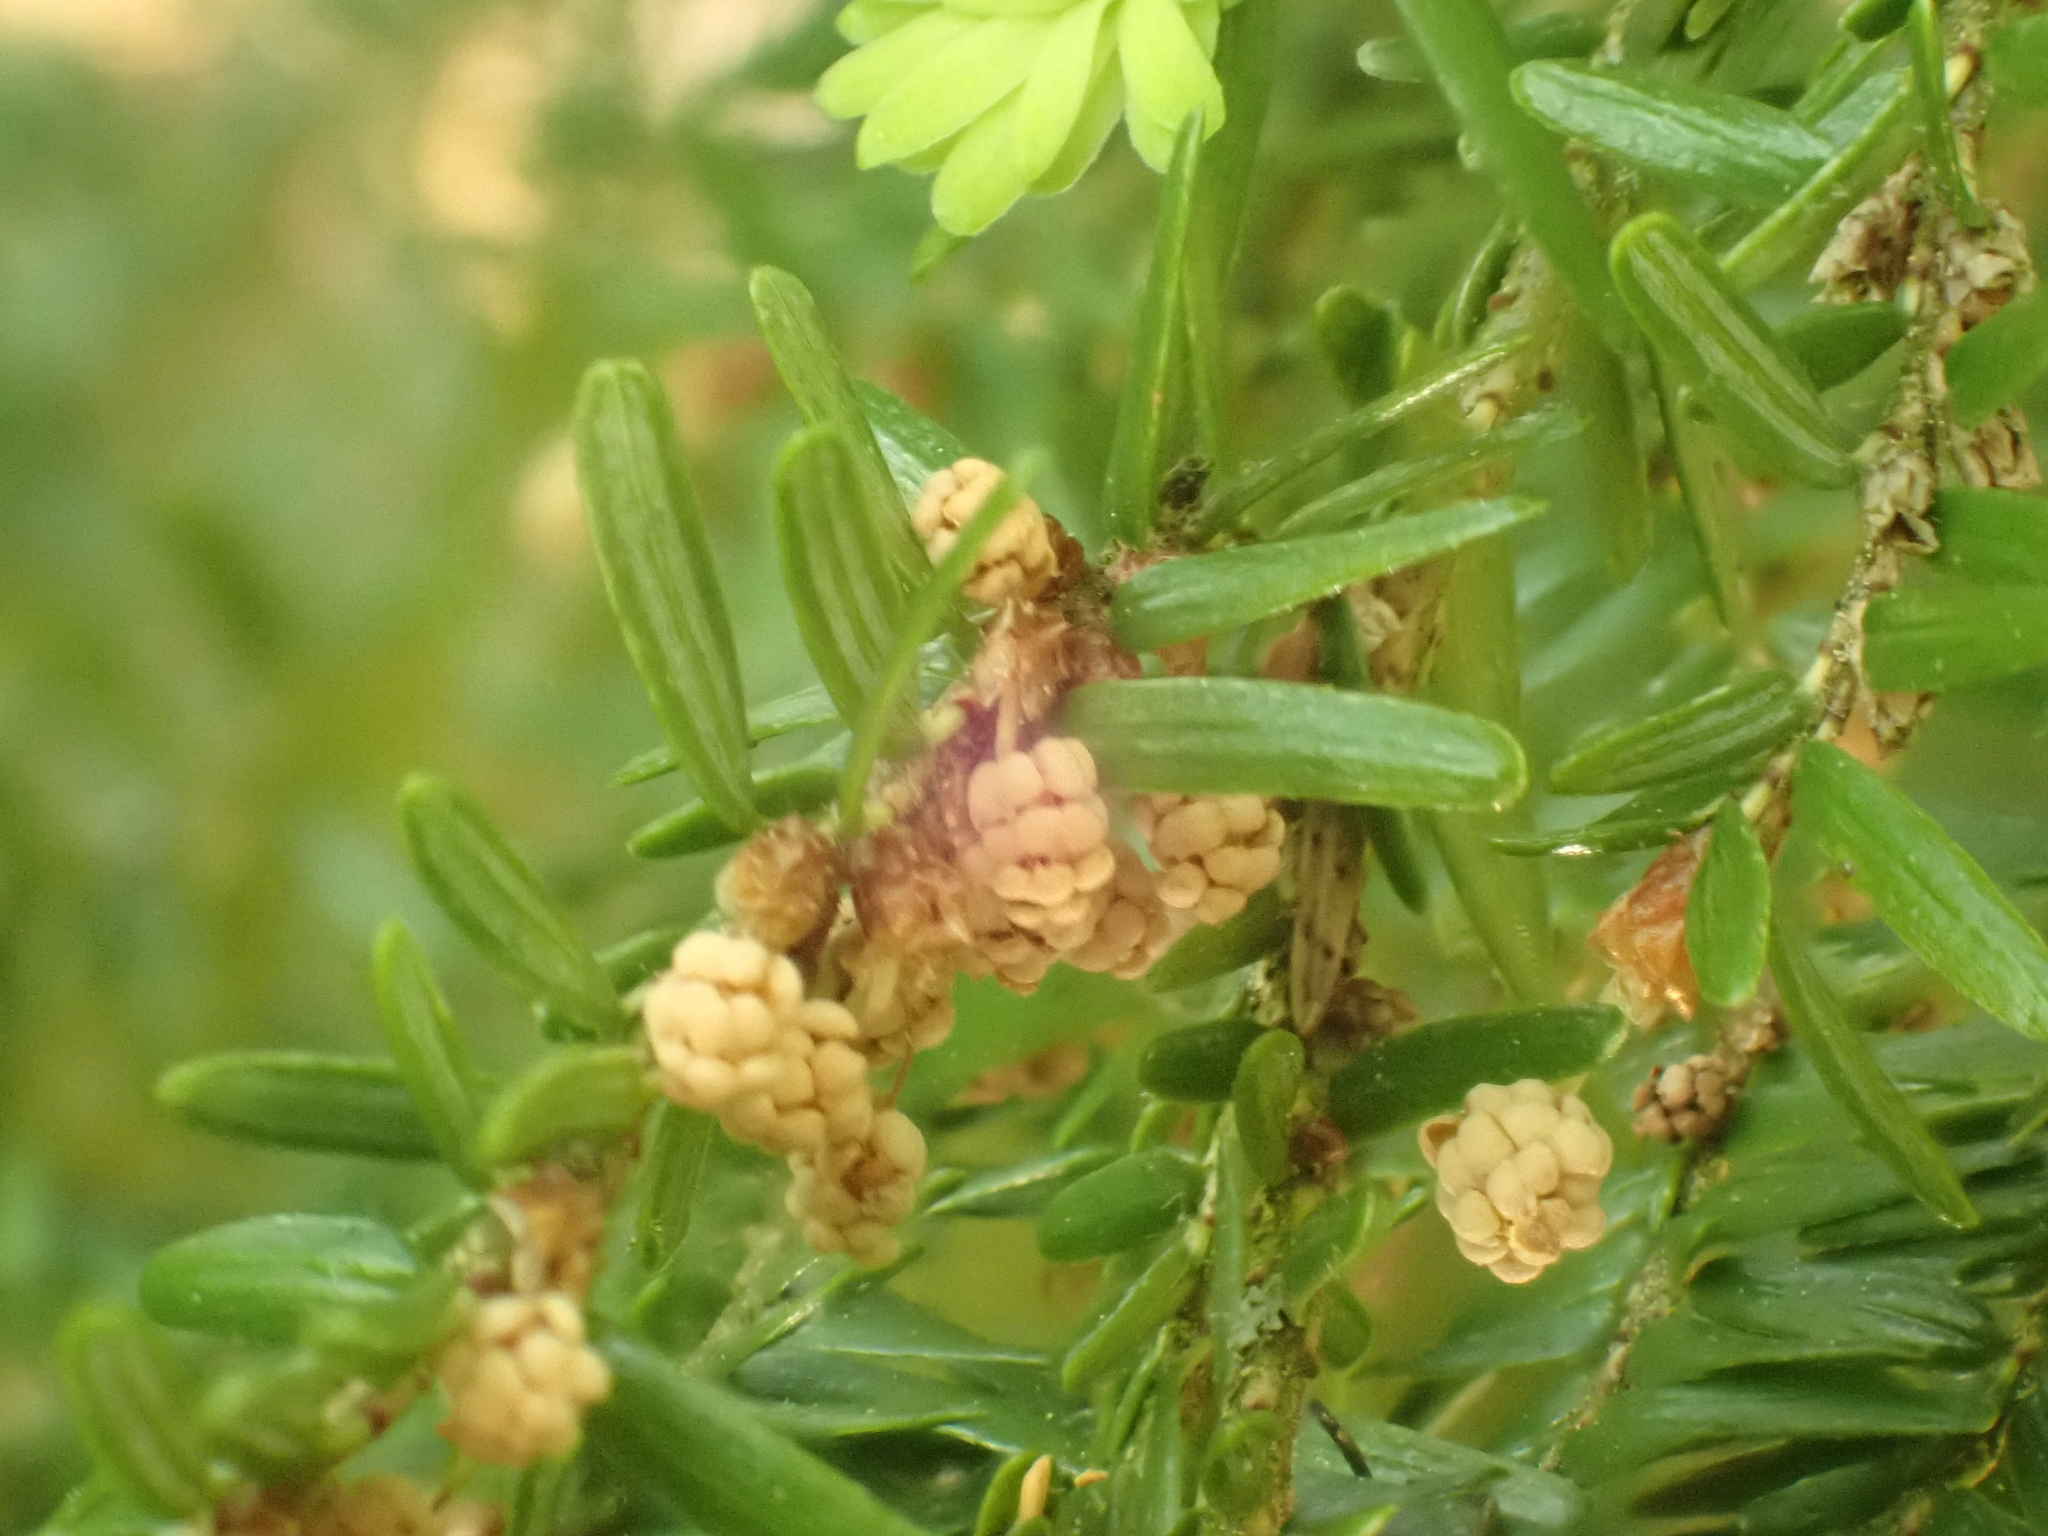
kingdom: Plantae
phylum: Tracheophyta
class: Pinopsida
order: Pinales
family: Pinaceae
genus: Tsuga
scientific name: Tsuga canadensis
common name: Eastern hemlock
